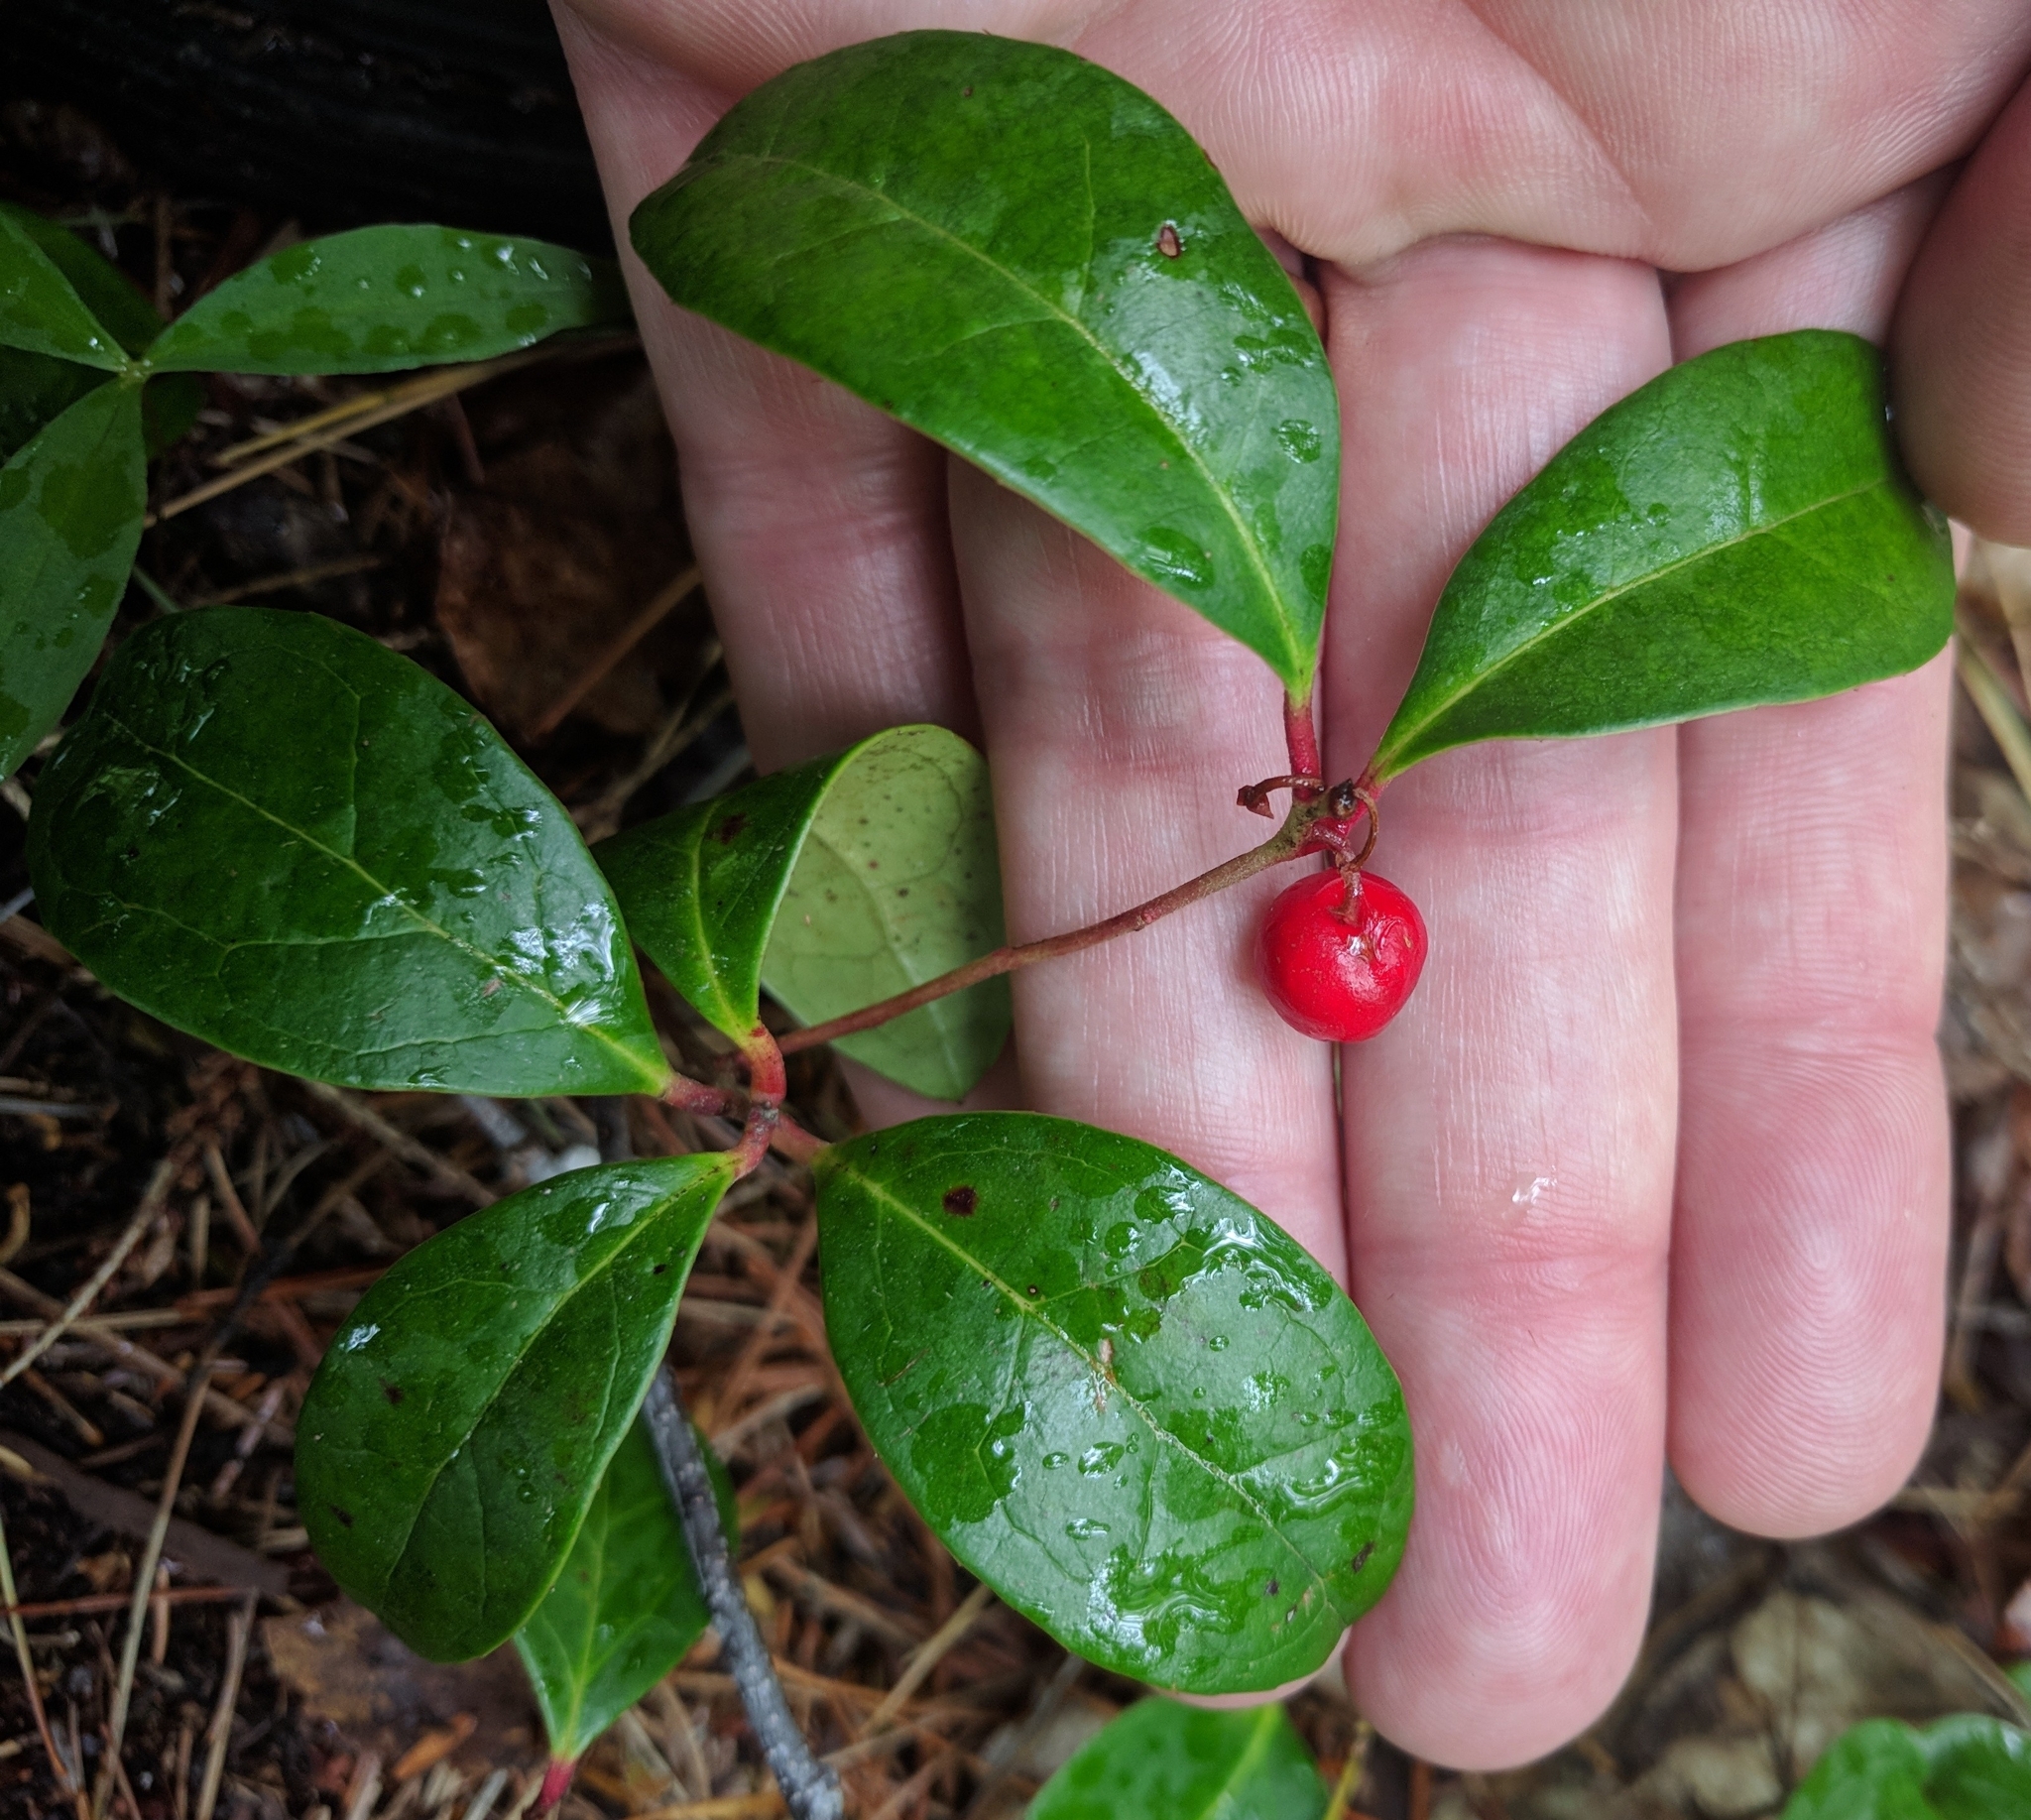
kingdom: Plantae
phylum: Tracheophyta
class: Magnoliopsida
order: Ericales
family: Ericaceae
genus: Gaultheria
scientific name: Gaultheria procumbens
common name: Checkerberry
